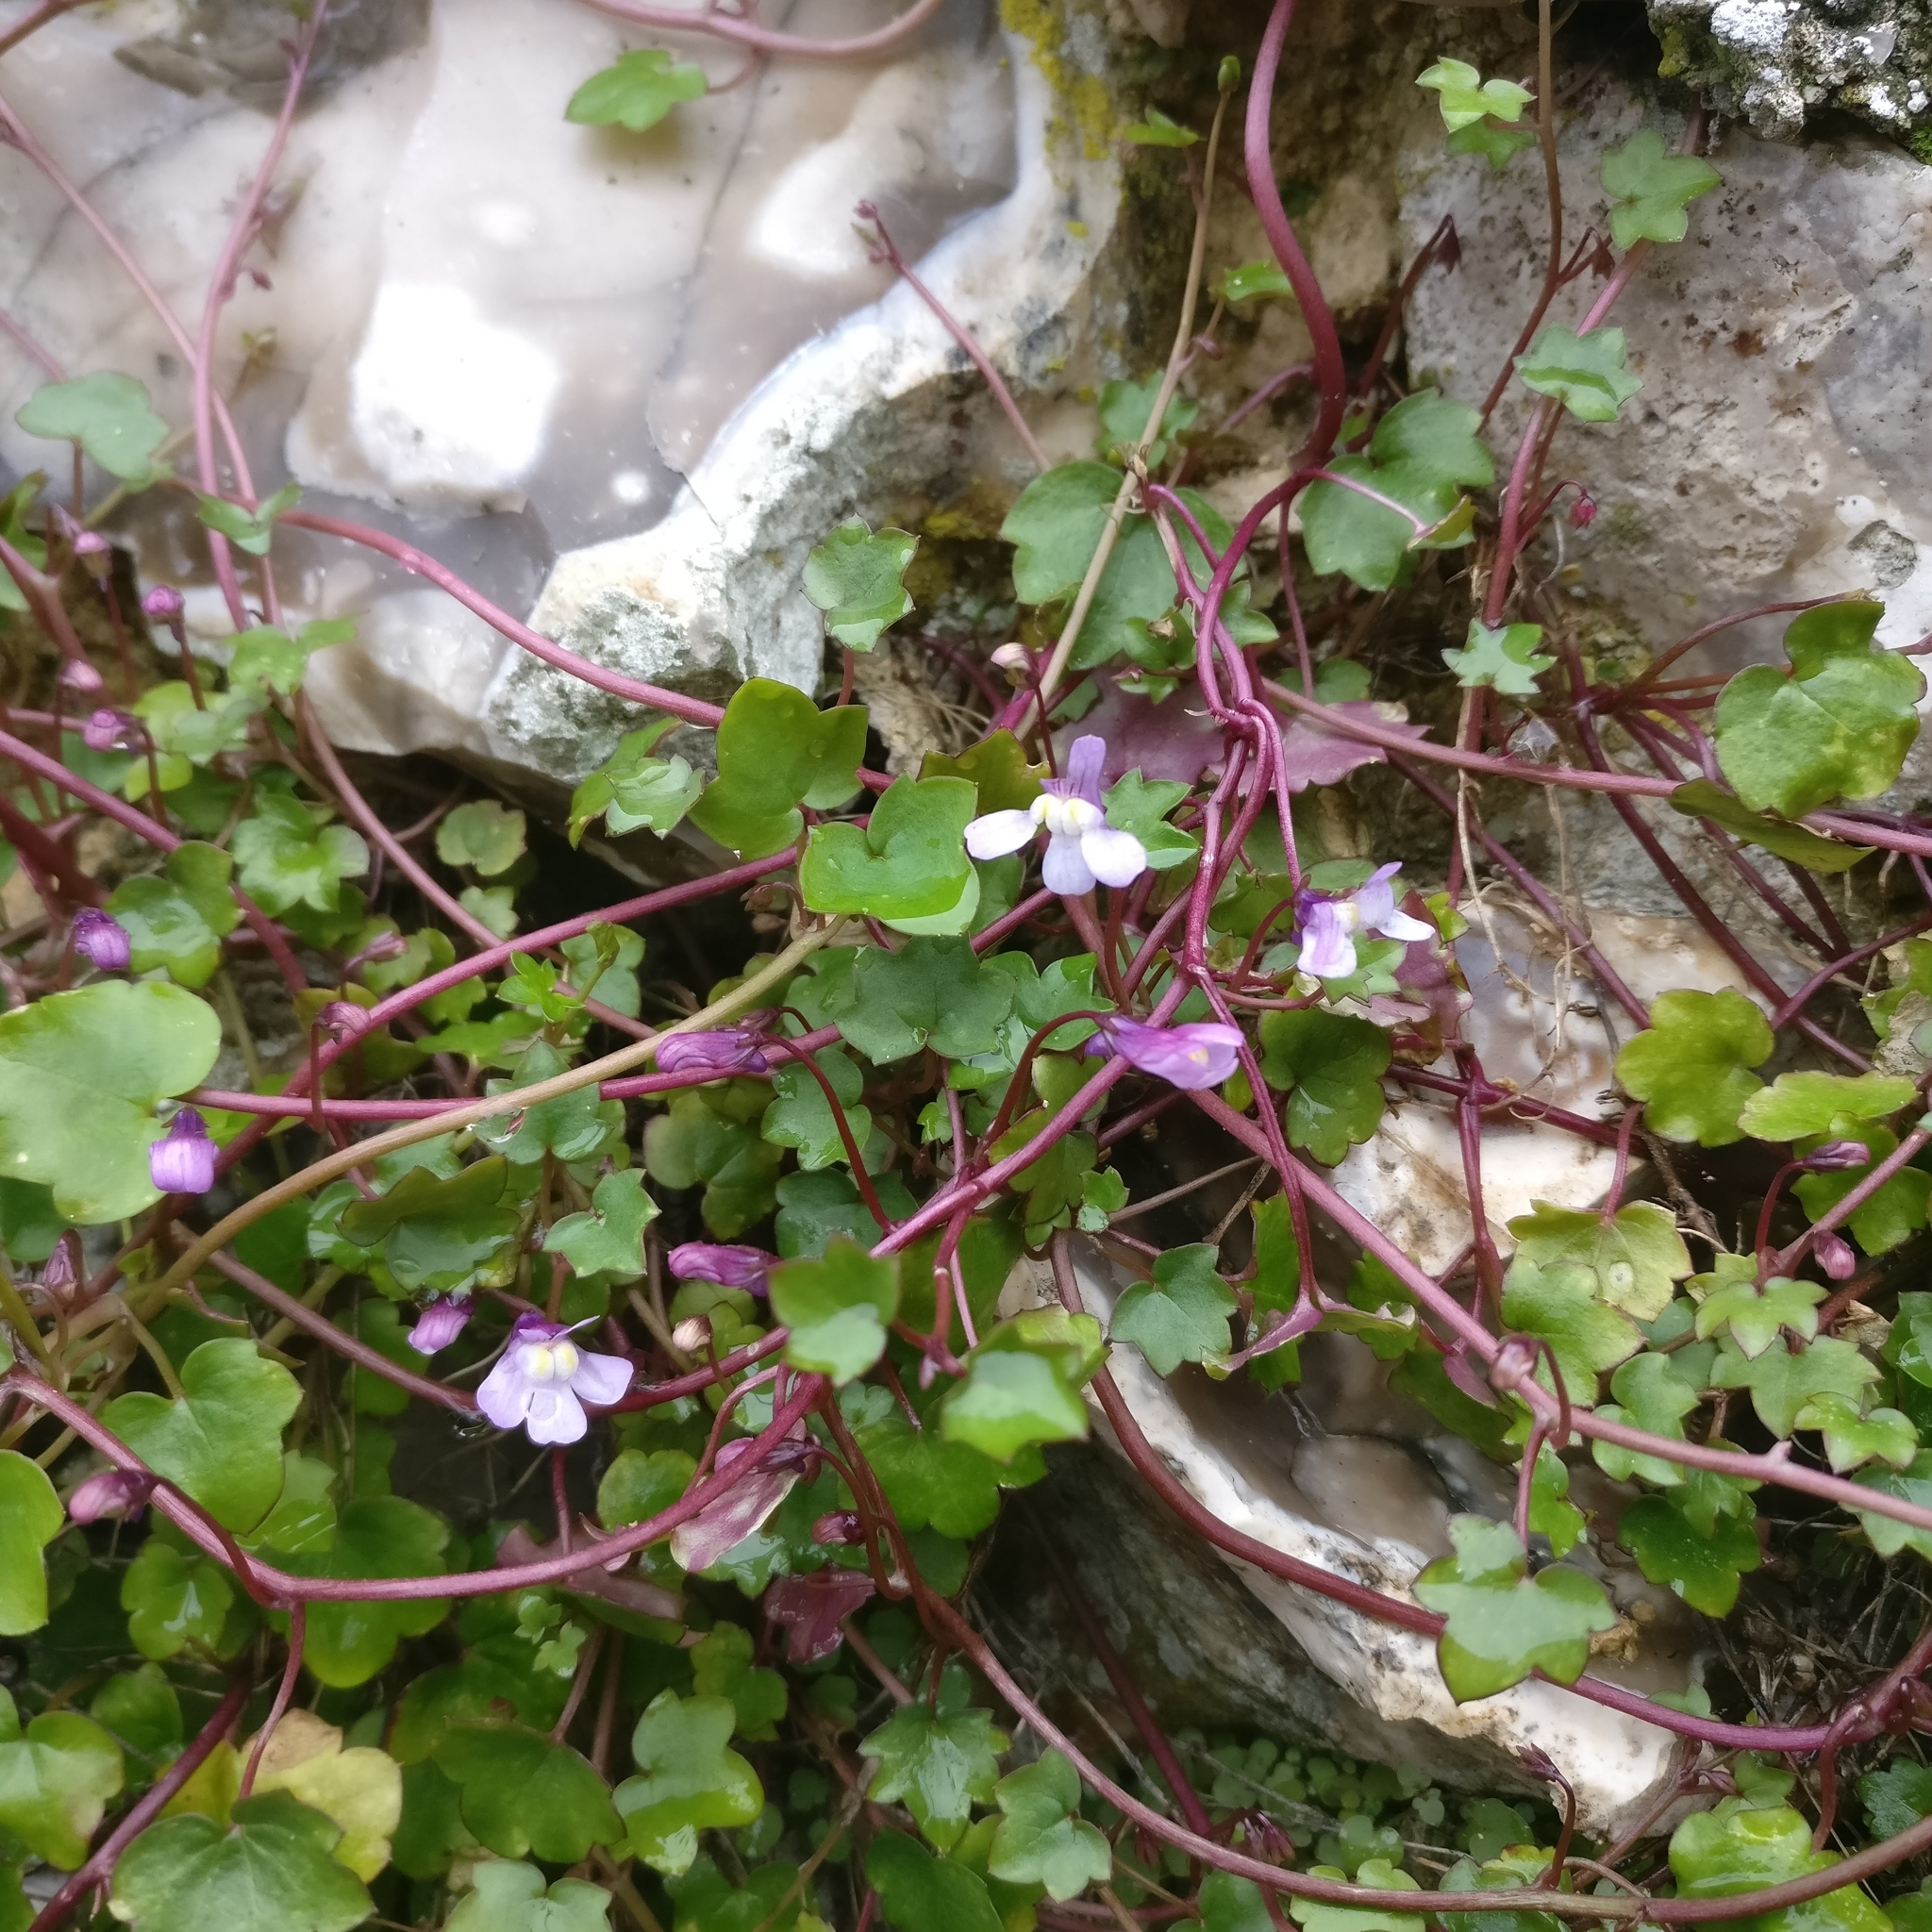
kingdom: Plantae
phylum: Tracheophyta
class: Magnoliopsida
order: Lamiales
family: Plantaginaceae
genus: Cymbalaria
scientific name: Cymbalaria muralis
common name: Ivy-leaved toadflax
